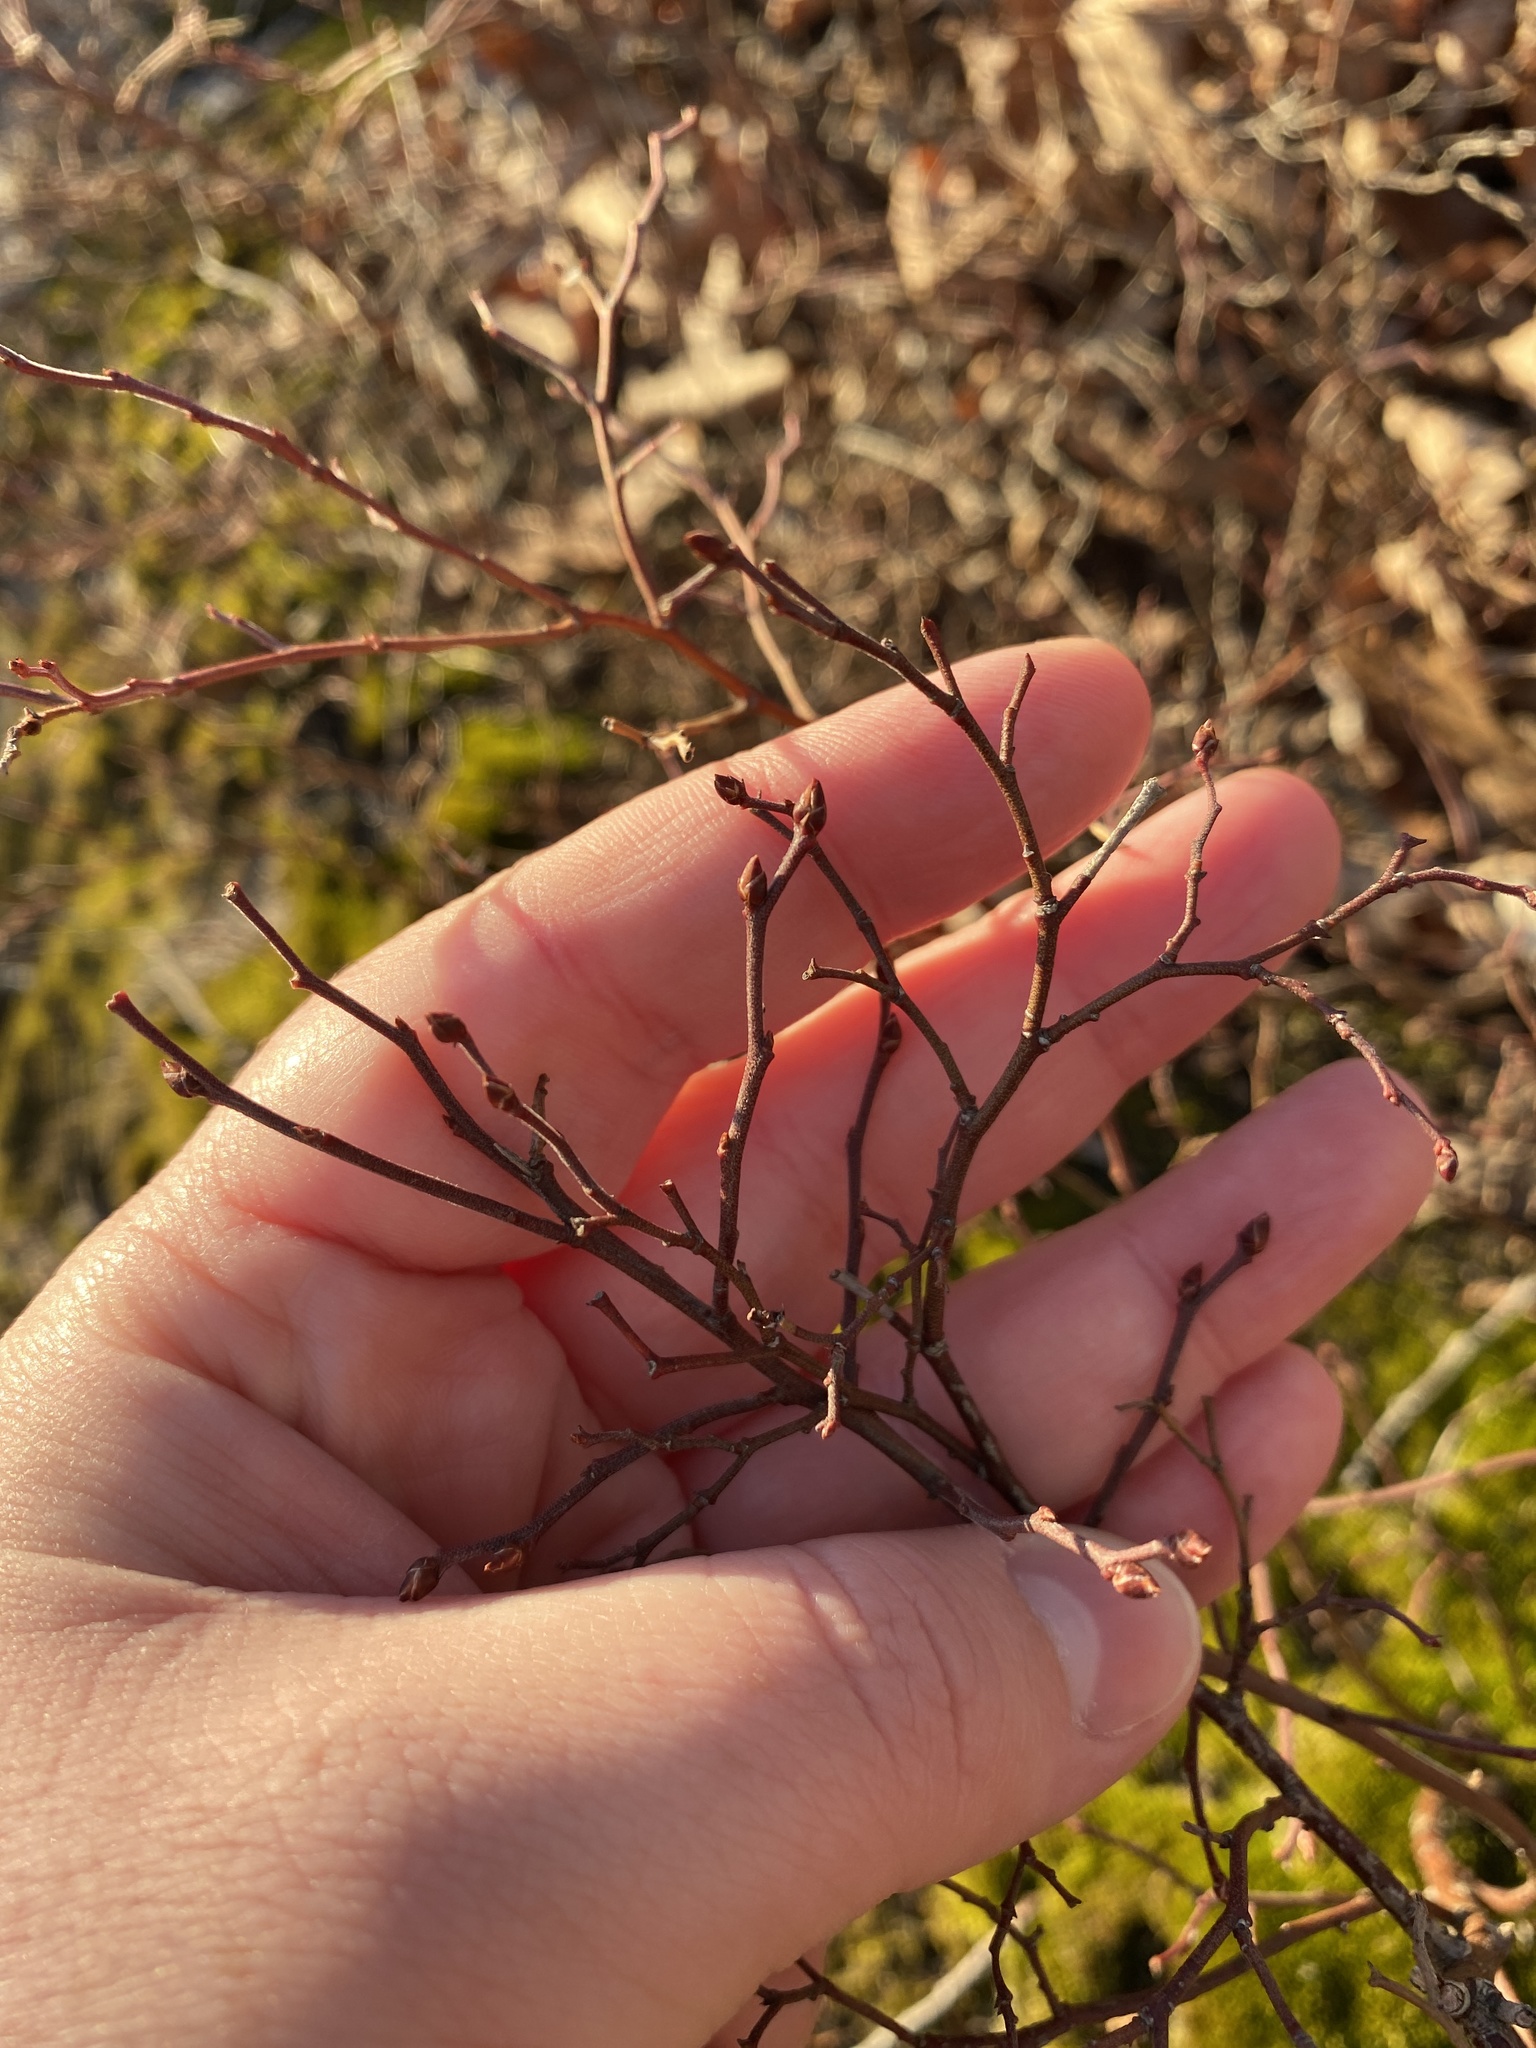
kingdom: Plantae
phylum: Tracheophyta
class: Magnoliopsida
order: Ericales
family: Ericaceae
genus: Vaccinium
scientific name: Vaccinium angustifolium
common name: Early lowbush blueberry
